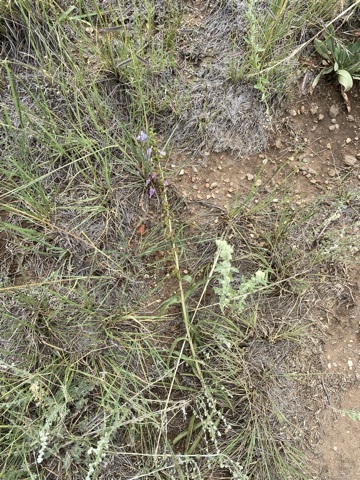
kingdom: Plantae
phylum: Tracheophyta
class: Magnoliopsida
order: Lamiales
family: Plantaginaceae
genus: Penstemon
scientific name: Penstemon virgatus
